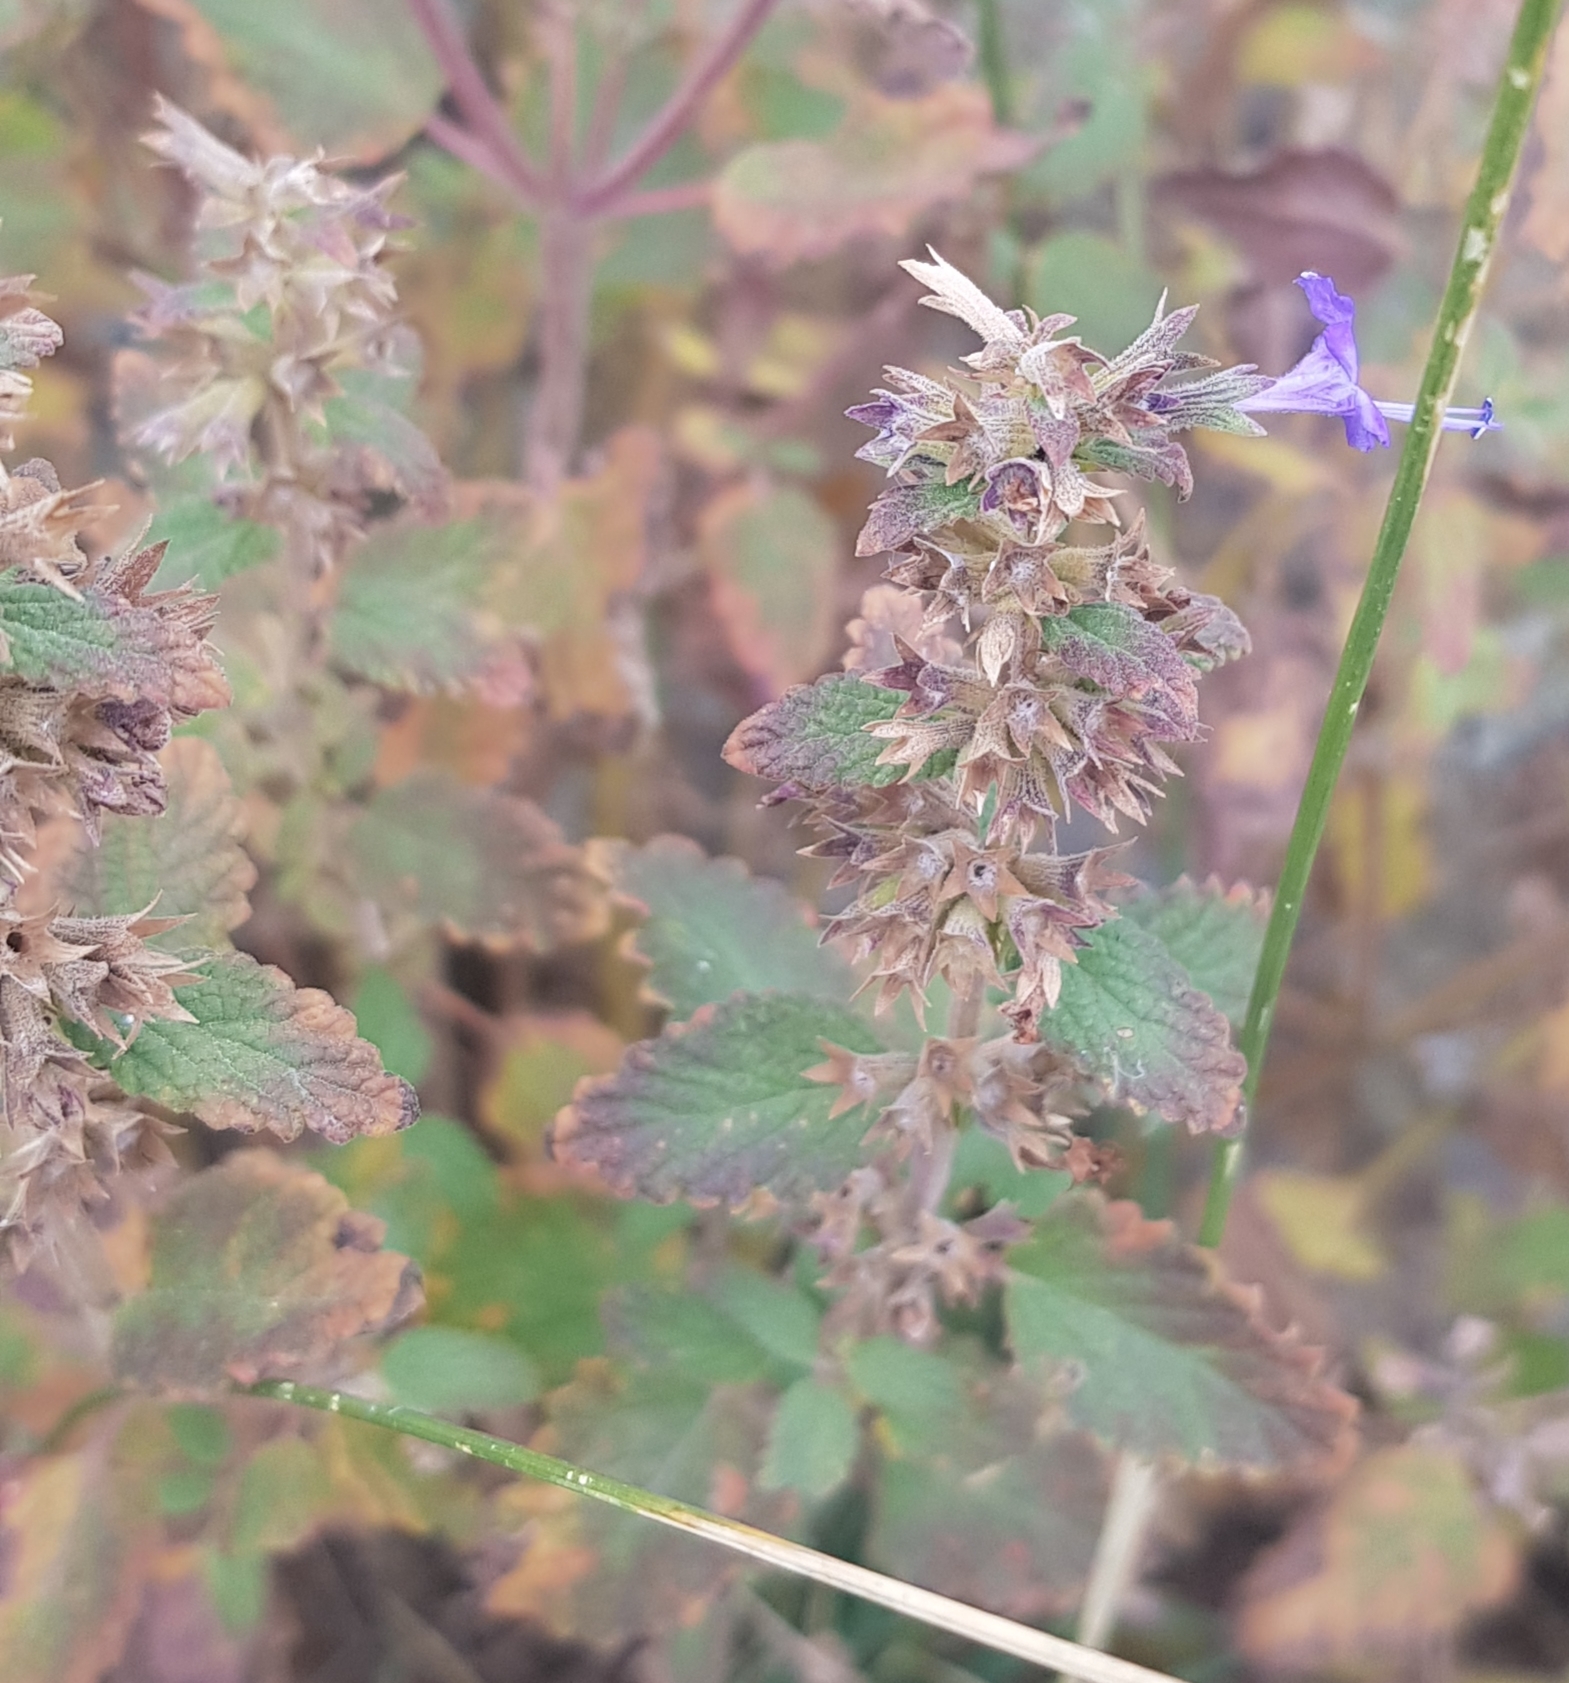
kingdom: Plantae
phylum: Tracheophyta
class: Magnoliopsida
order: Lamiales
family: Lamiaceae
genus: Nepeta
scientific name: Nepeta lophanthus
